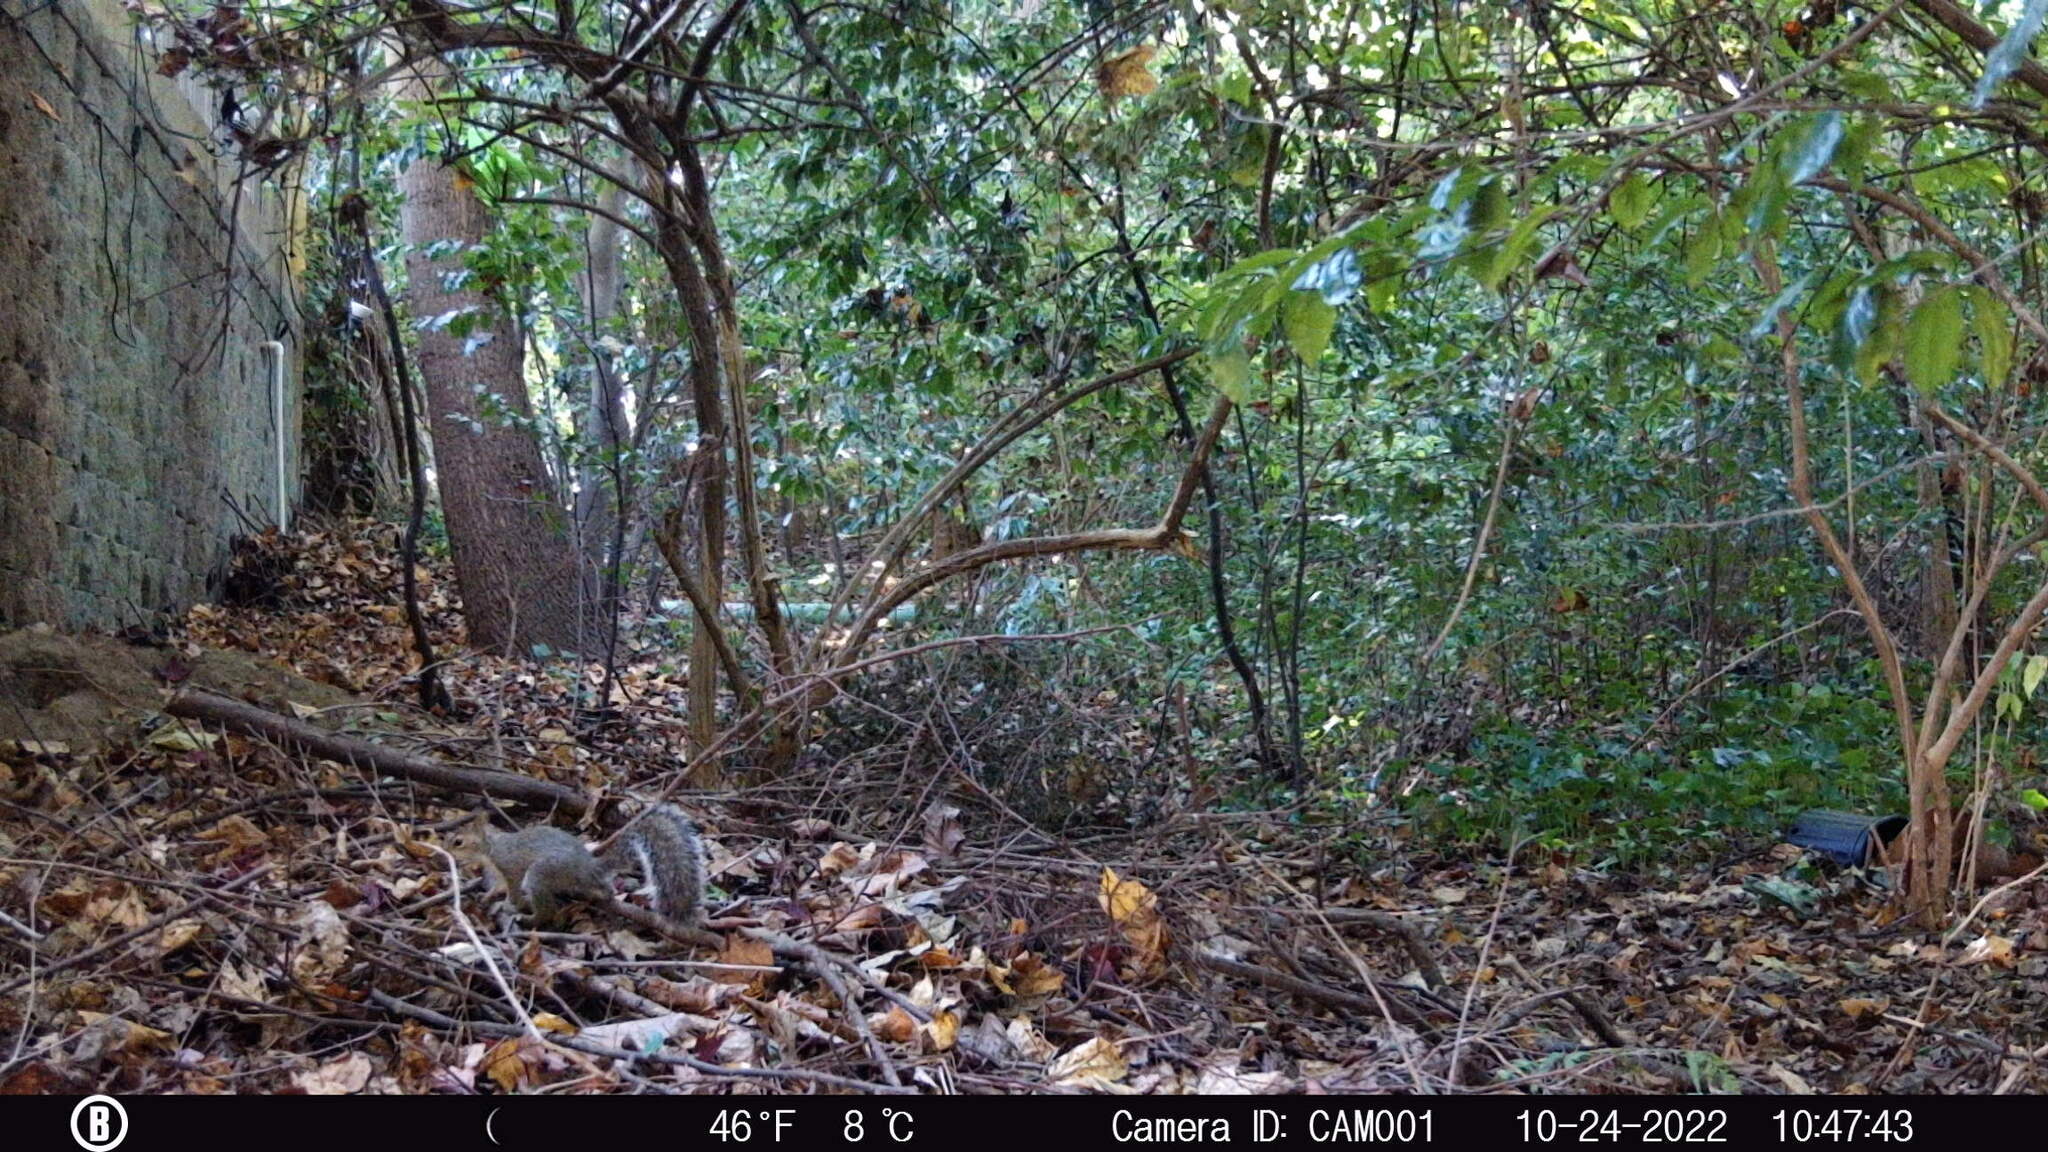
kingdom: Animalia
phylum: Chordata
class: Mammalia
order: Rodentia
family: Sciuridae
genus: Sciurus
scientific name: Sciurus carolinensis
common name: Eastern gray squirrel
